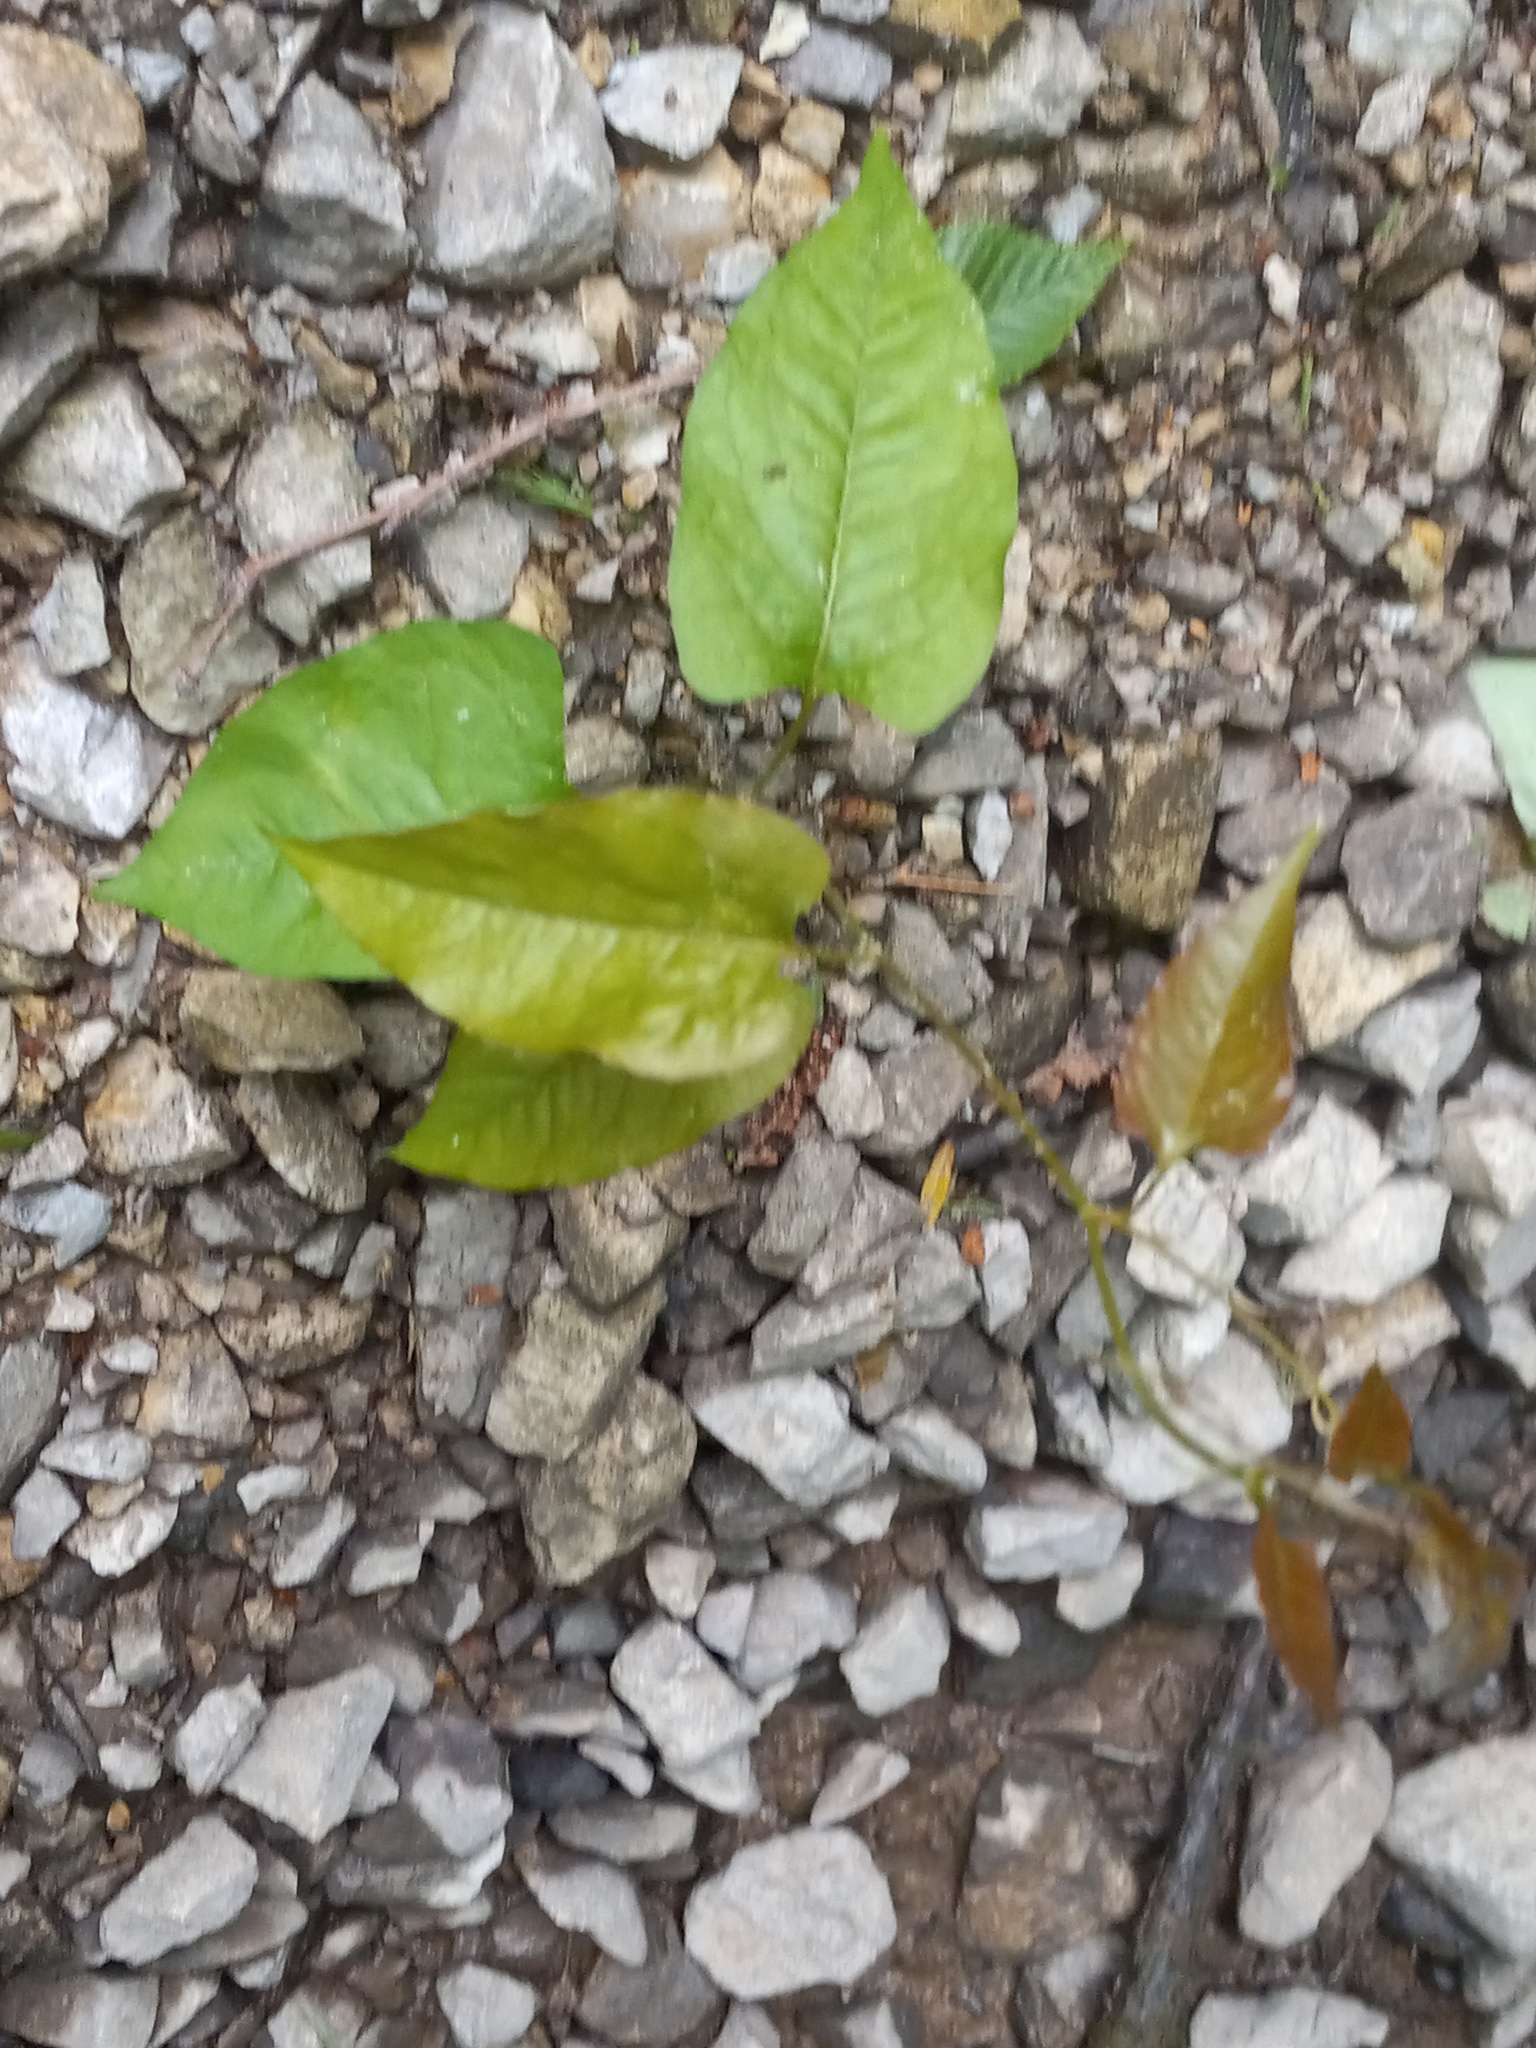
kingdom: Plantae
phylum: Tracheophyta
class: Magnoliopsida
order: Caryophyllales
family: Polygonaceae
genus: Brunnichia
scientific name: Brunnichia ovata
